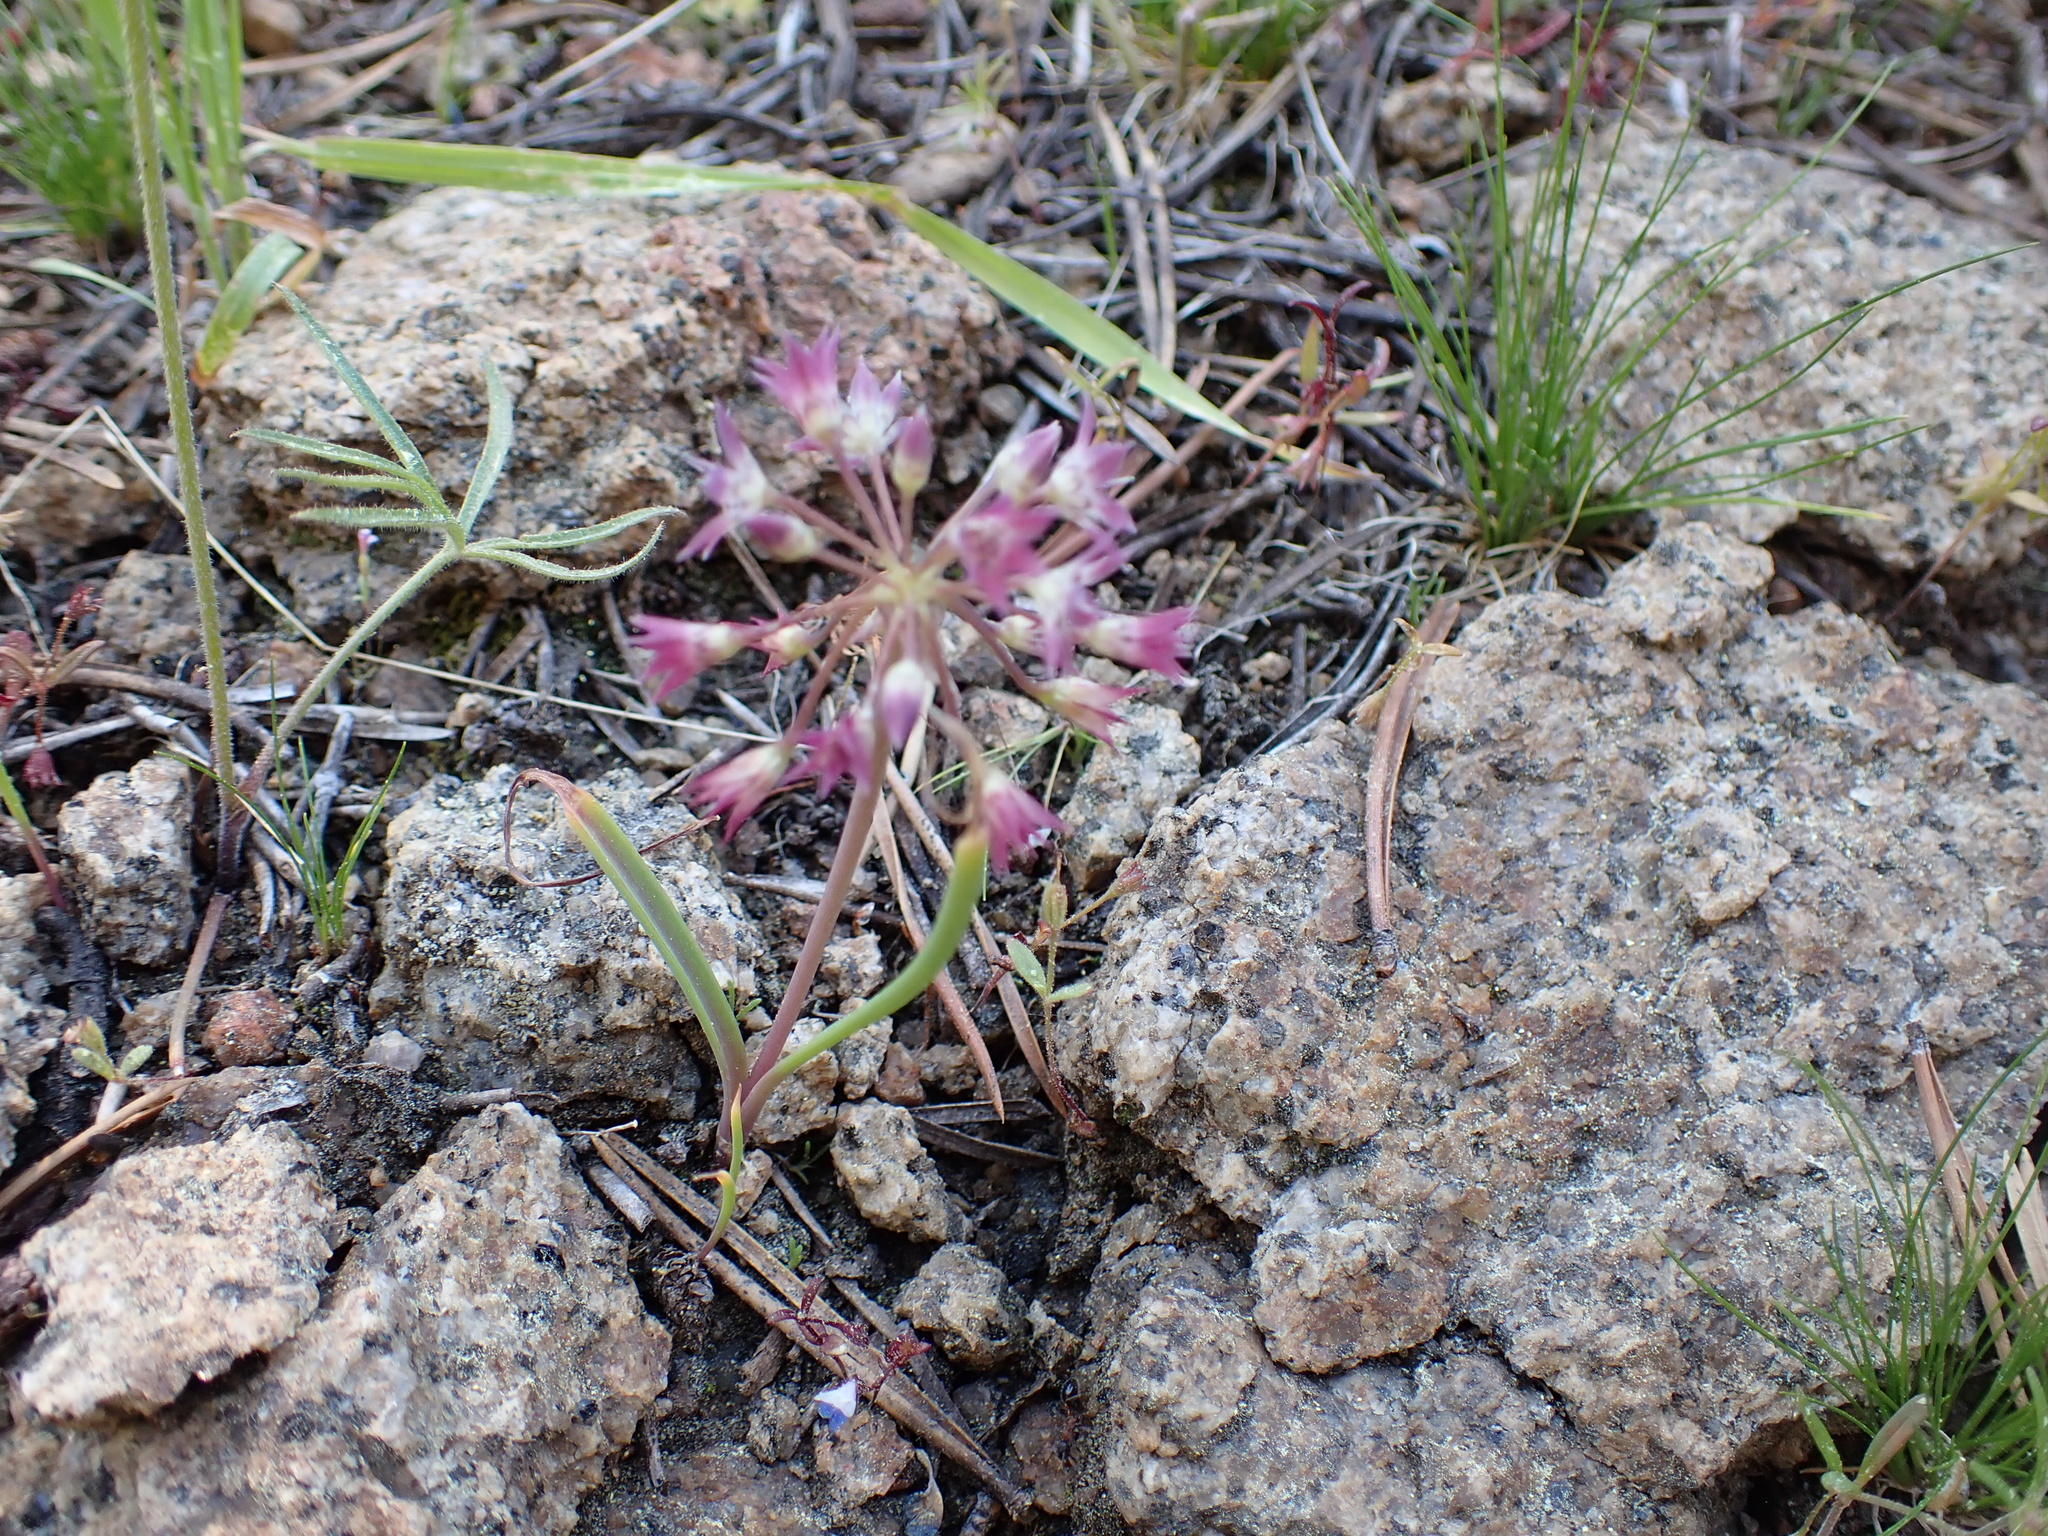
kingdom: Plantae
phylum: Tracheophyta
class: Liliopsida
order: Asparagales
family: Amaryllidaceae
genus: Allium
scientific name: Allium campanulatum
